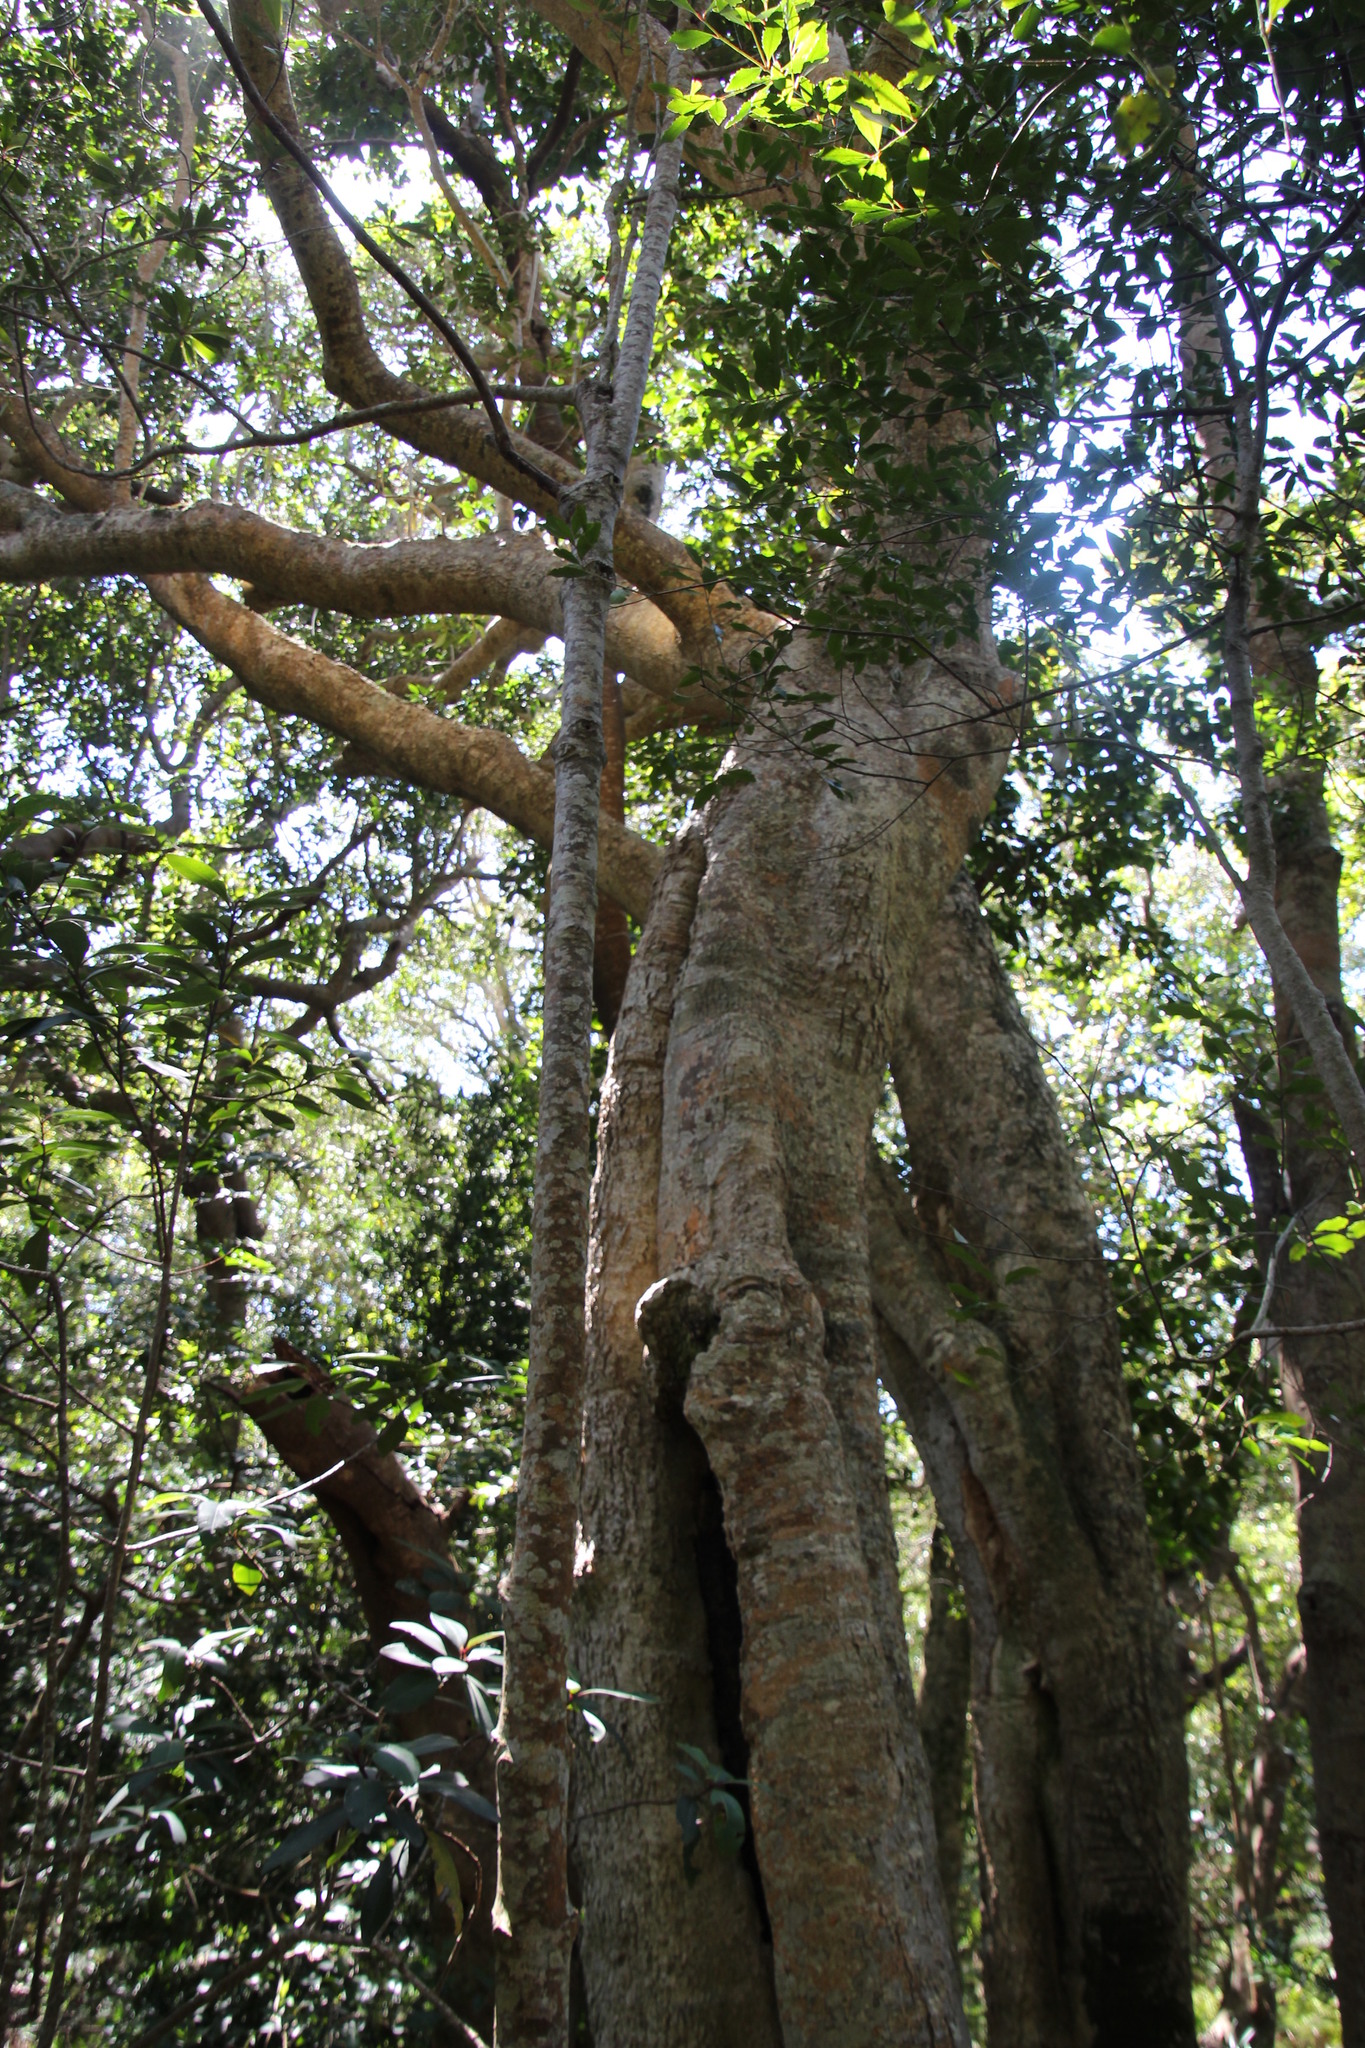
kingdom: Plantae
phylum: Tracheophyta
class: Magnoliopsida
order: Cornales
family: Curtisiaceae
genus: Curtisia
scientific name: Curtisia dentata
